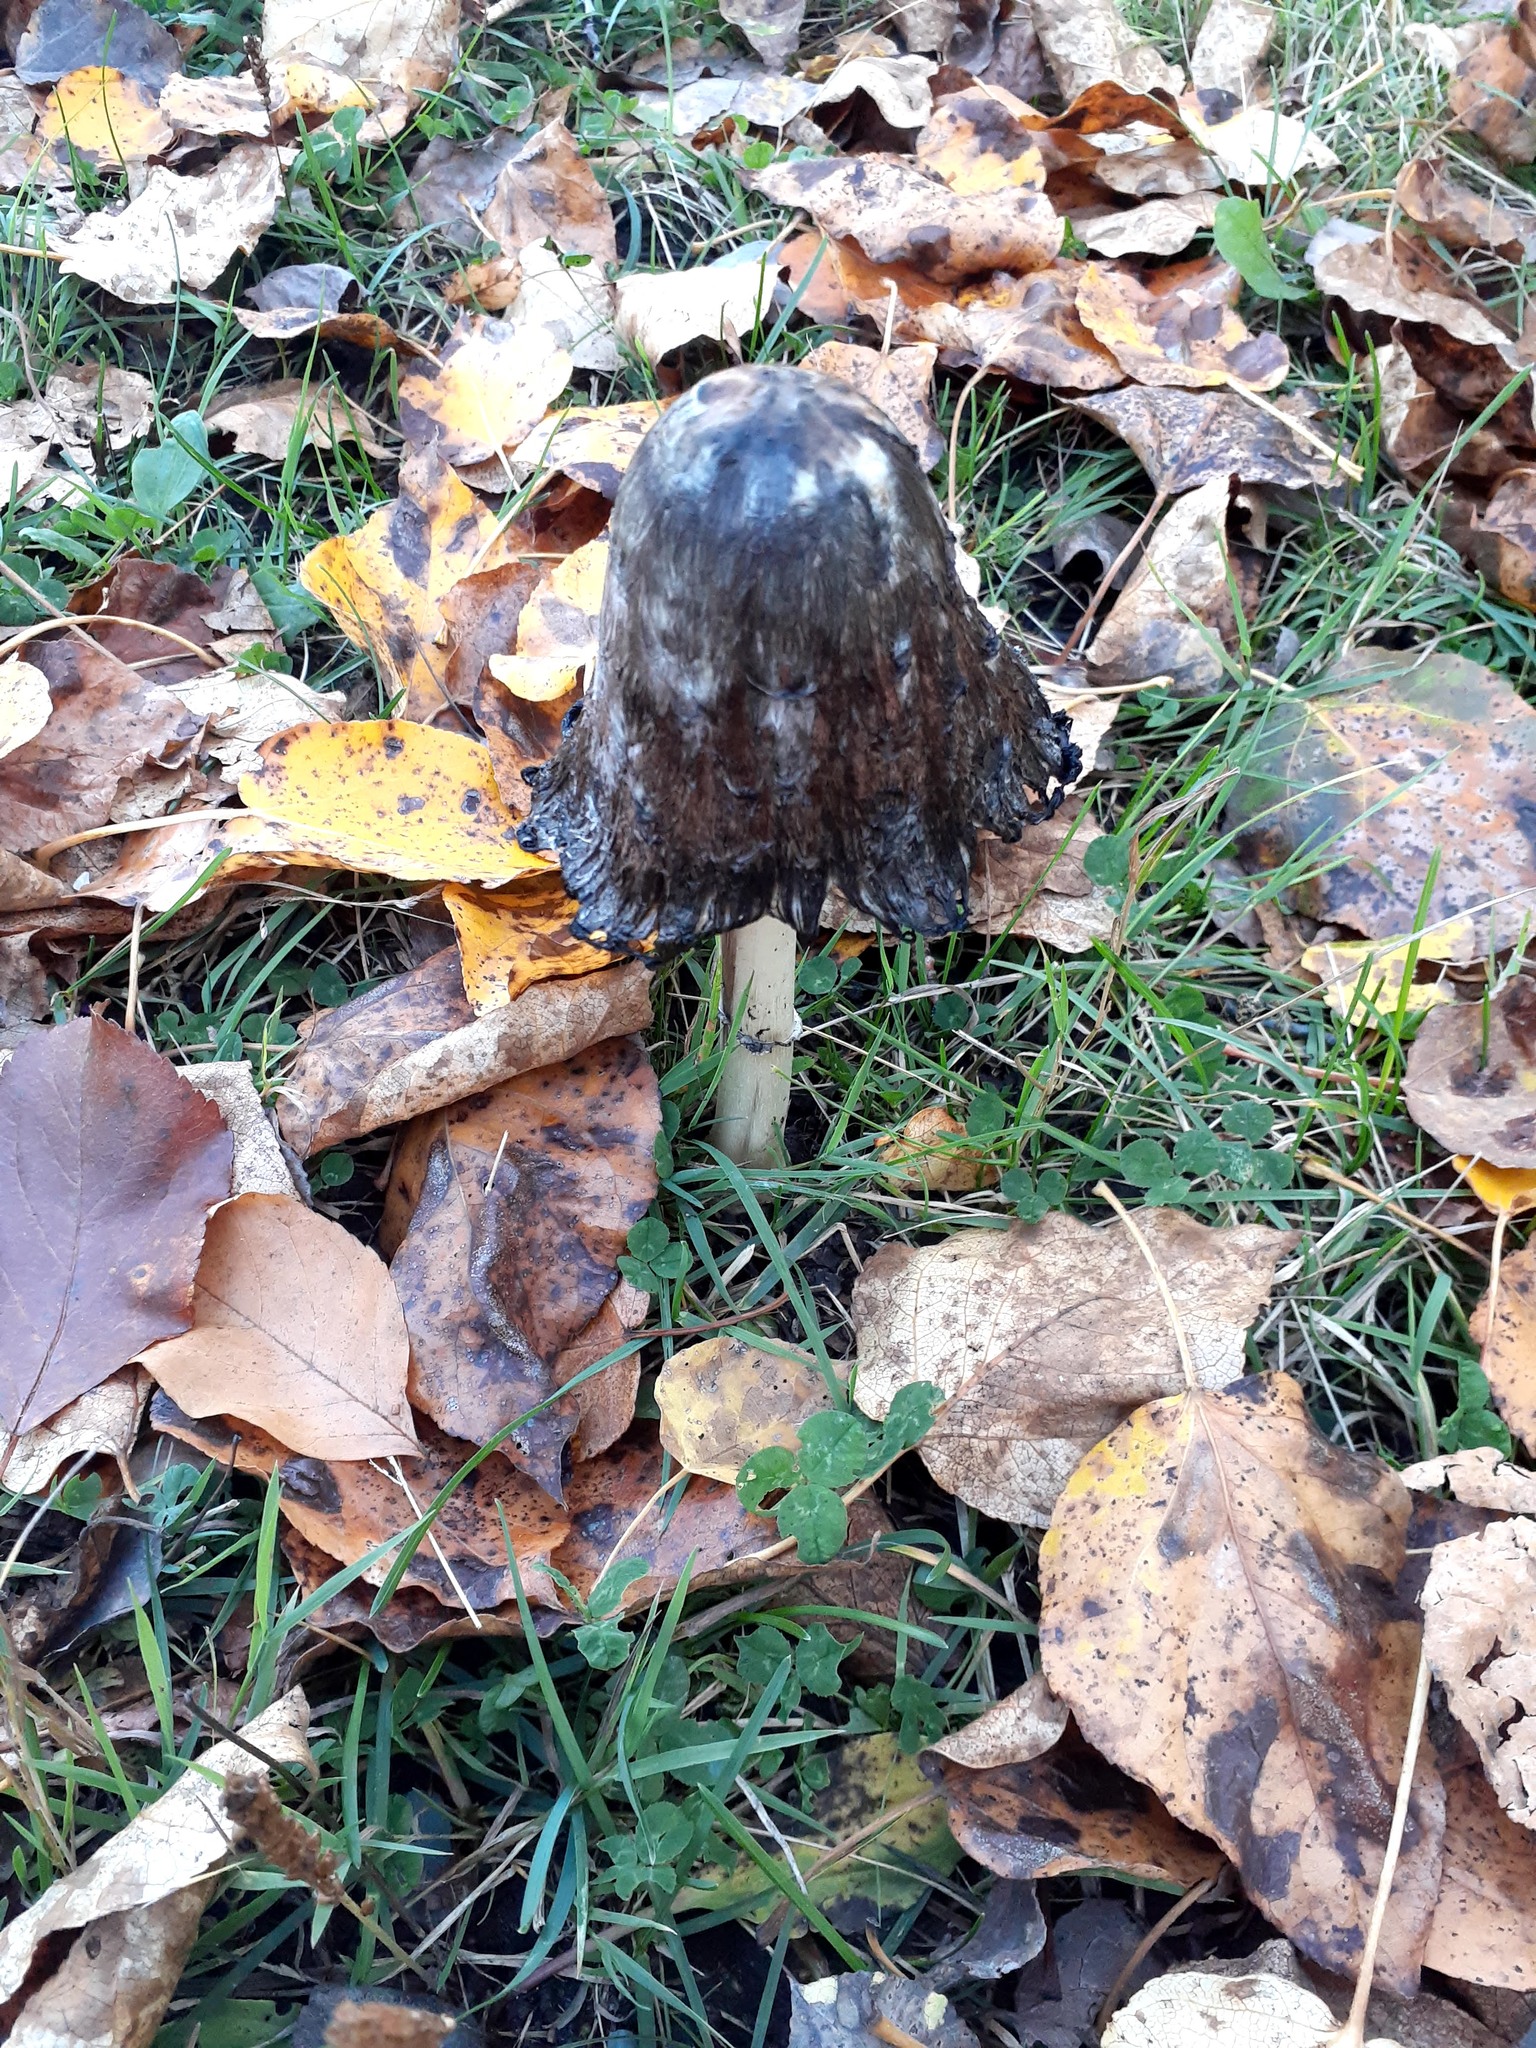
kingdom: Fungi
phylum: Basidiomycota
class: Agaricomycetes
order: Agaricales
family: Agaricaceae
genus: Coprinus
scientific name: Coprinus comatus
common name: Lawyer's wig
